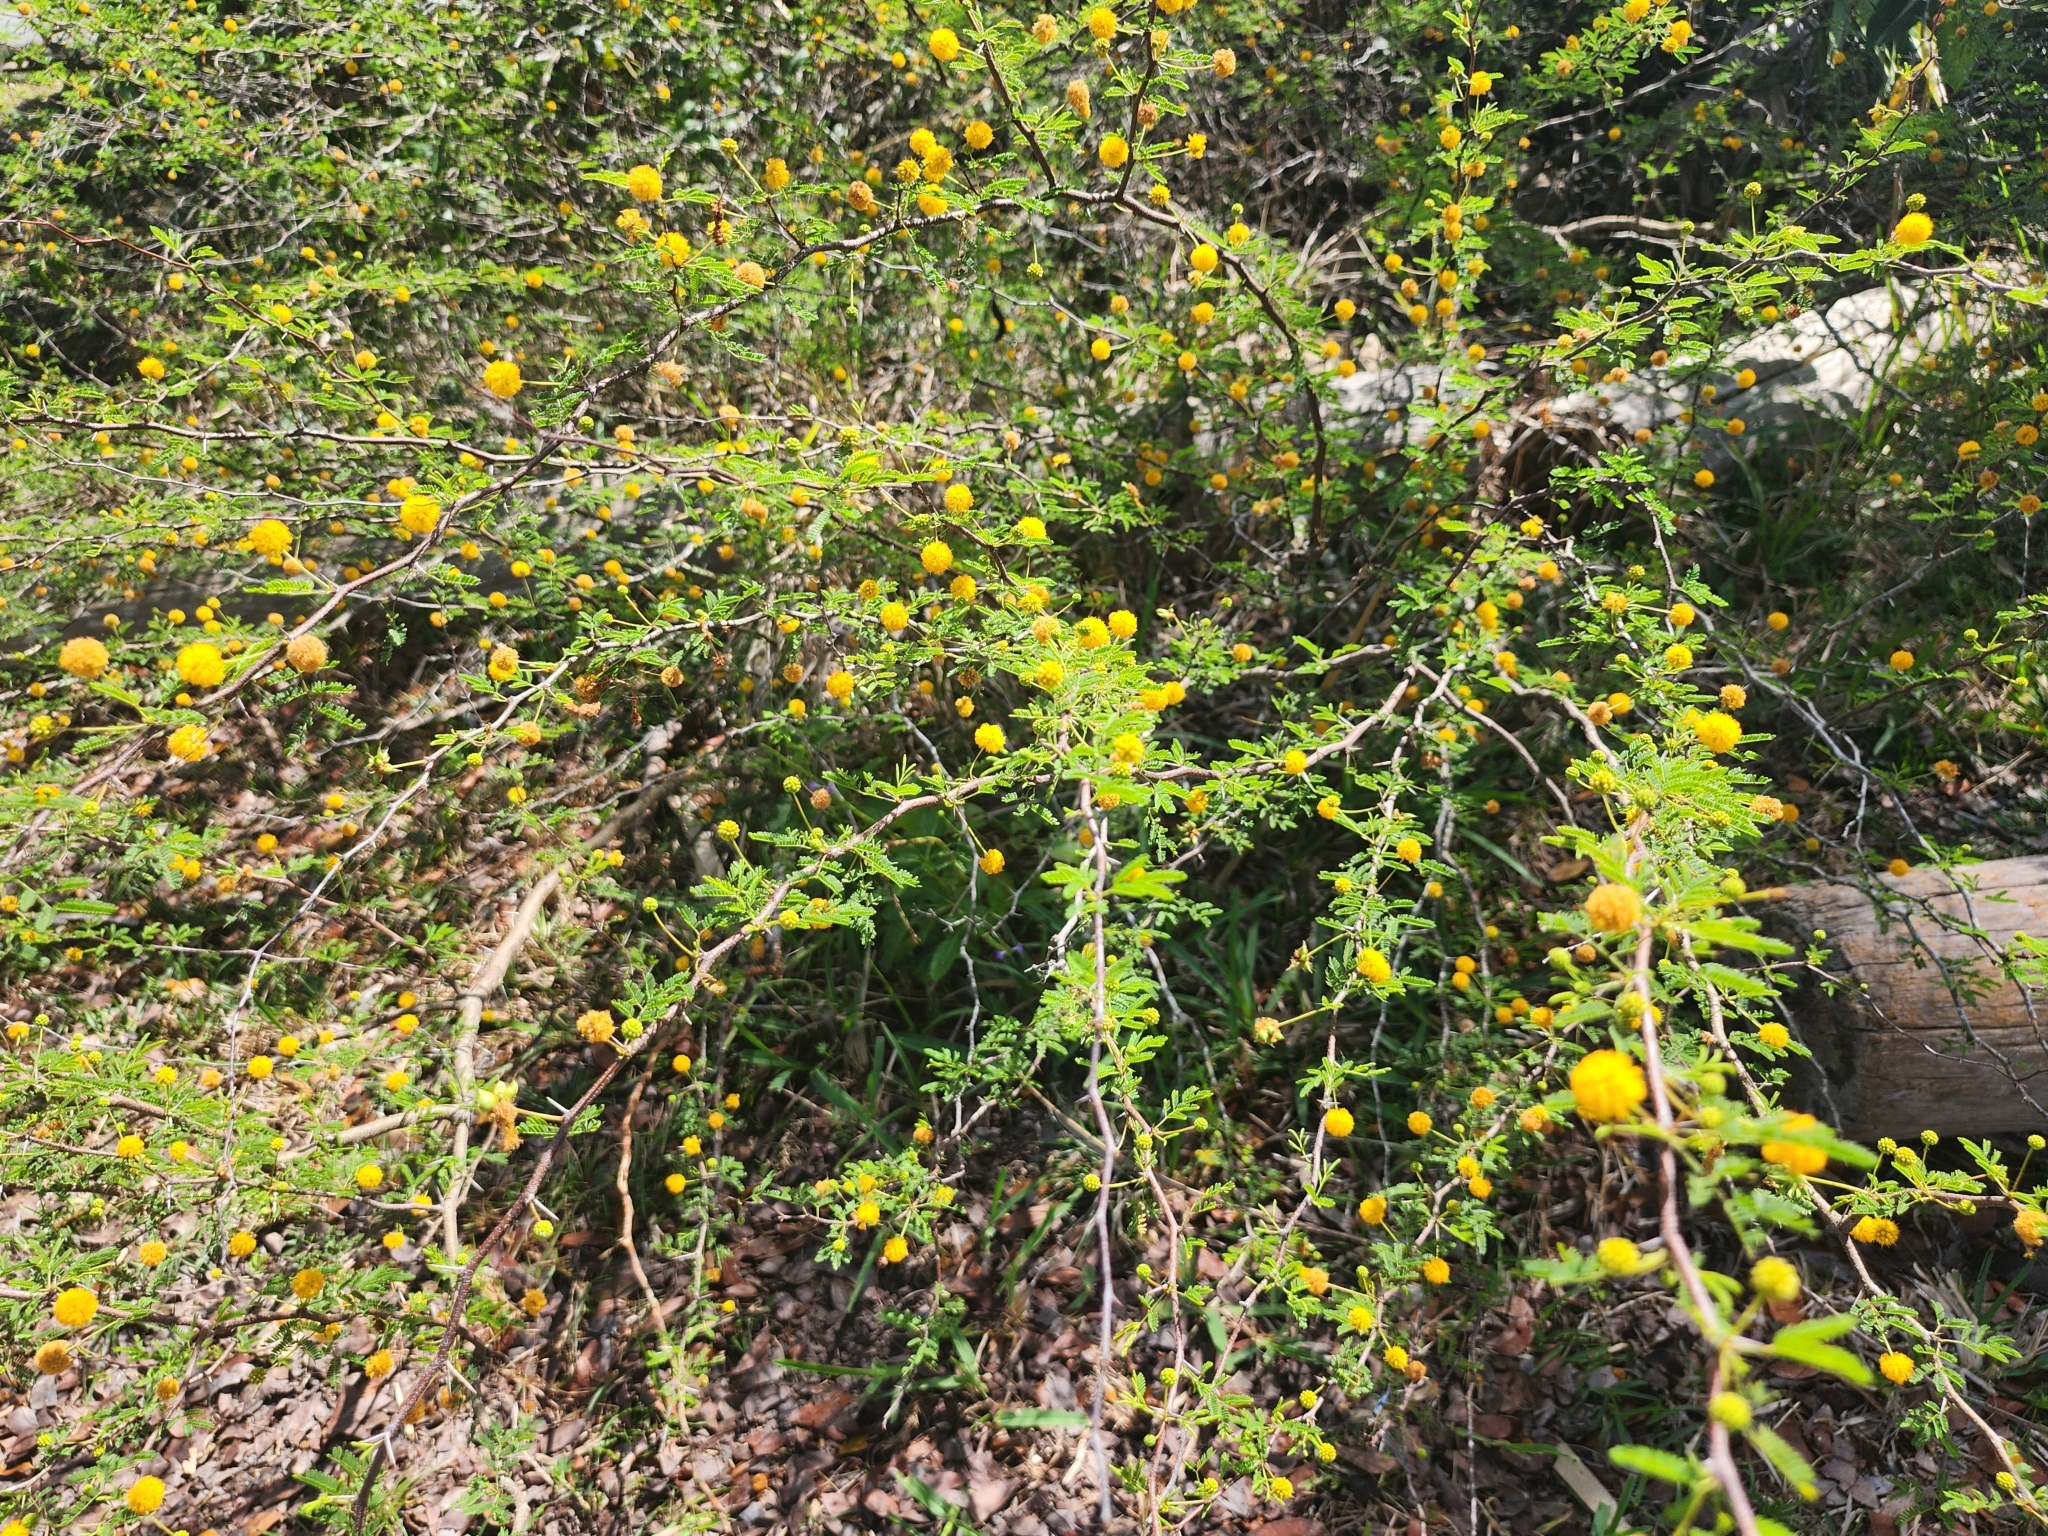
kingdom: Plantae
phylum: Tracheophyta
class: Magnoliopsida
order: Fabales
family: Fabaceae
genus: Vachellia
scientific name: Vachellia farnesiana
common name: Sweet acacia
